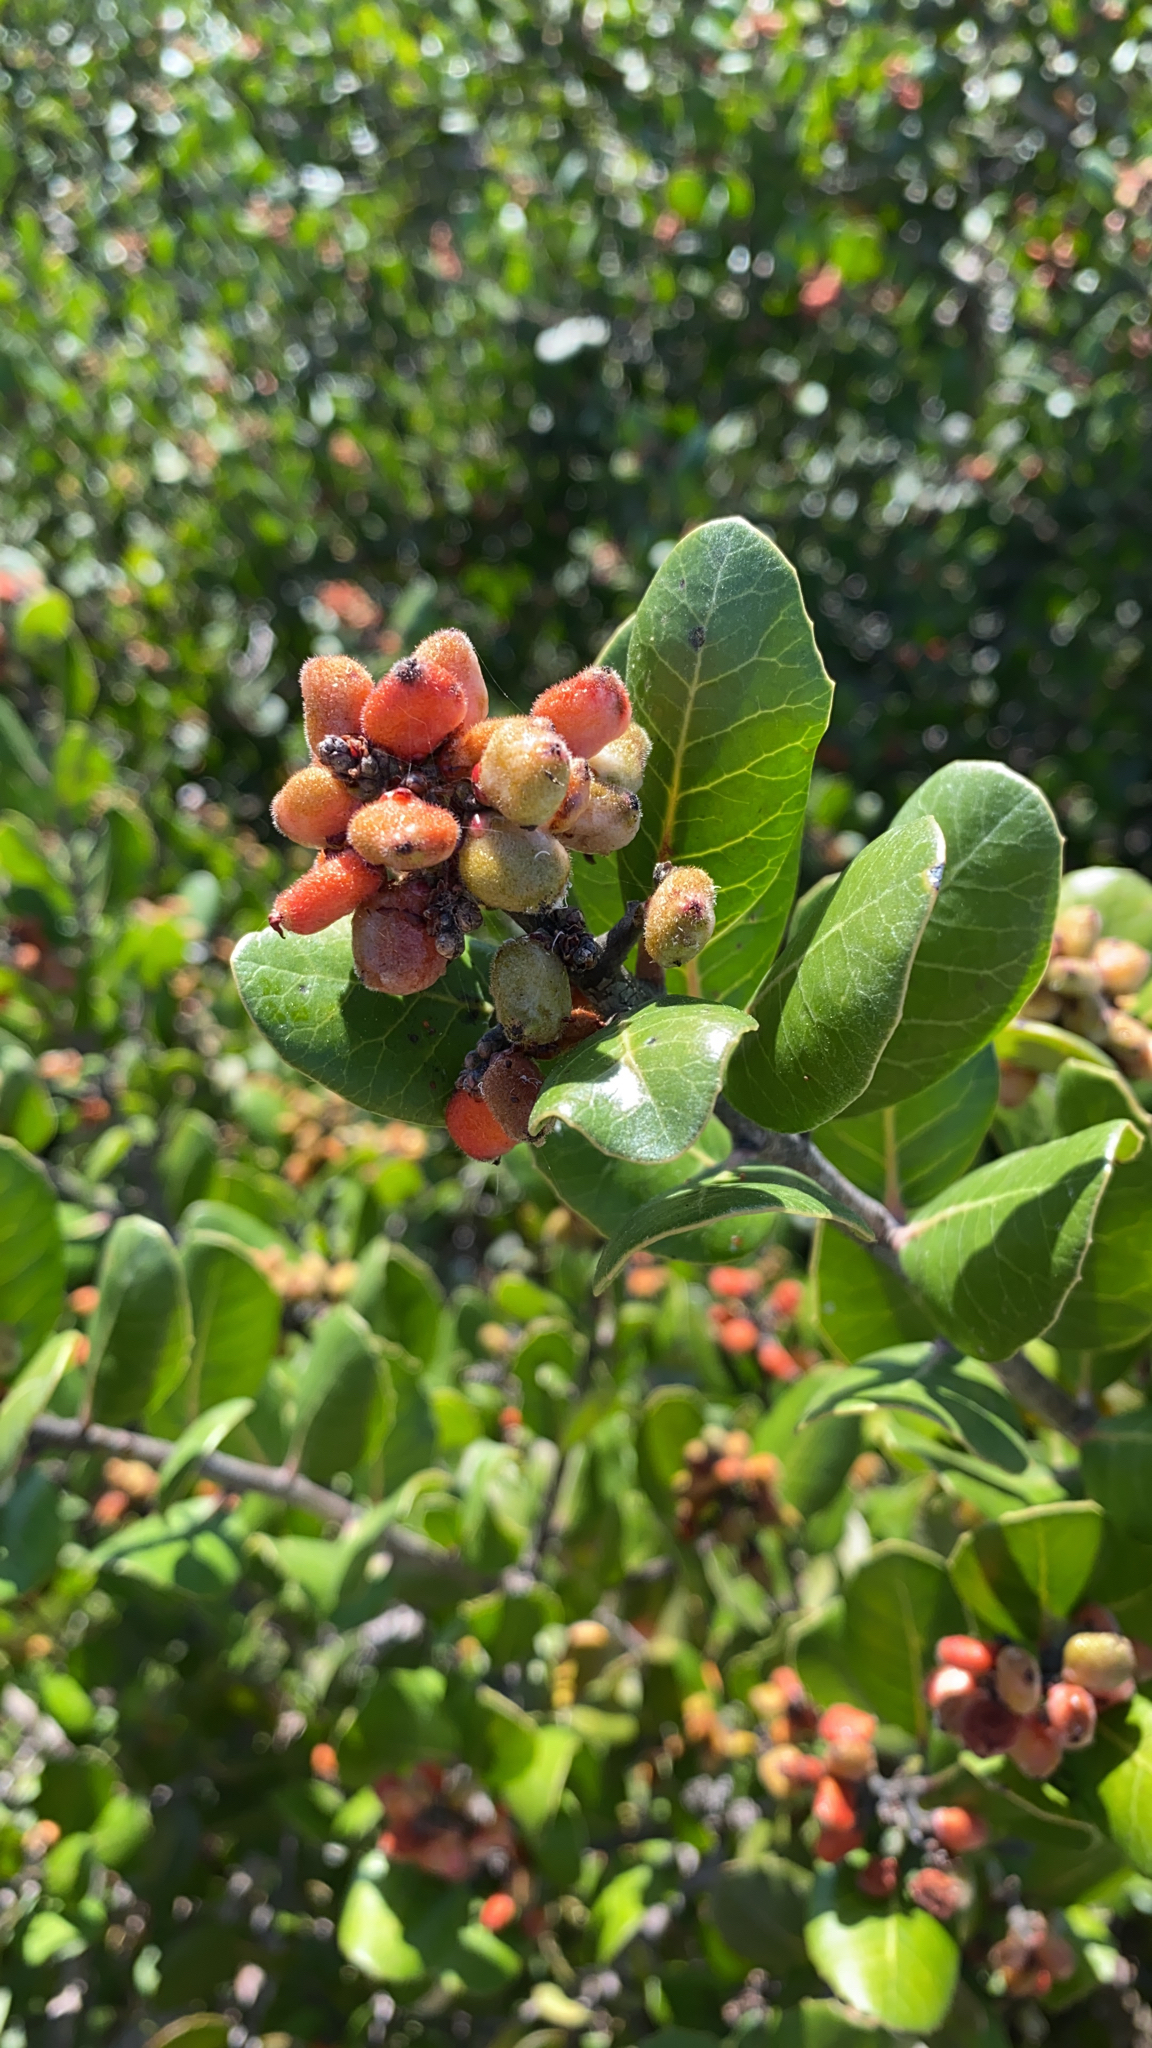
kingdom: Plantae
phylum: Tracheophyta
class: Magnoliopsida
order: Sapindales
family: Anacardiaceae
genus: Rhus
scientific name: Rhus integrifolia
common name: Lemonade sumac
